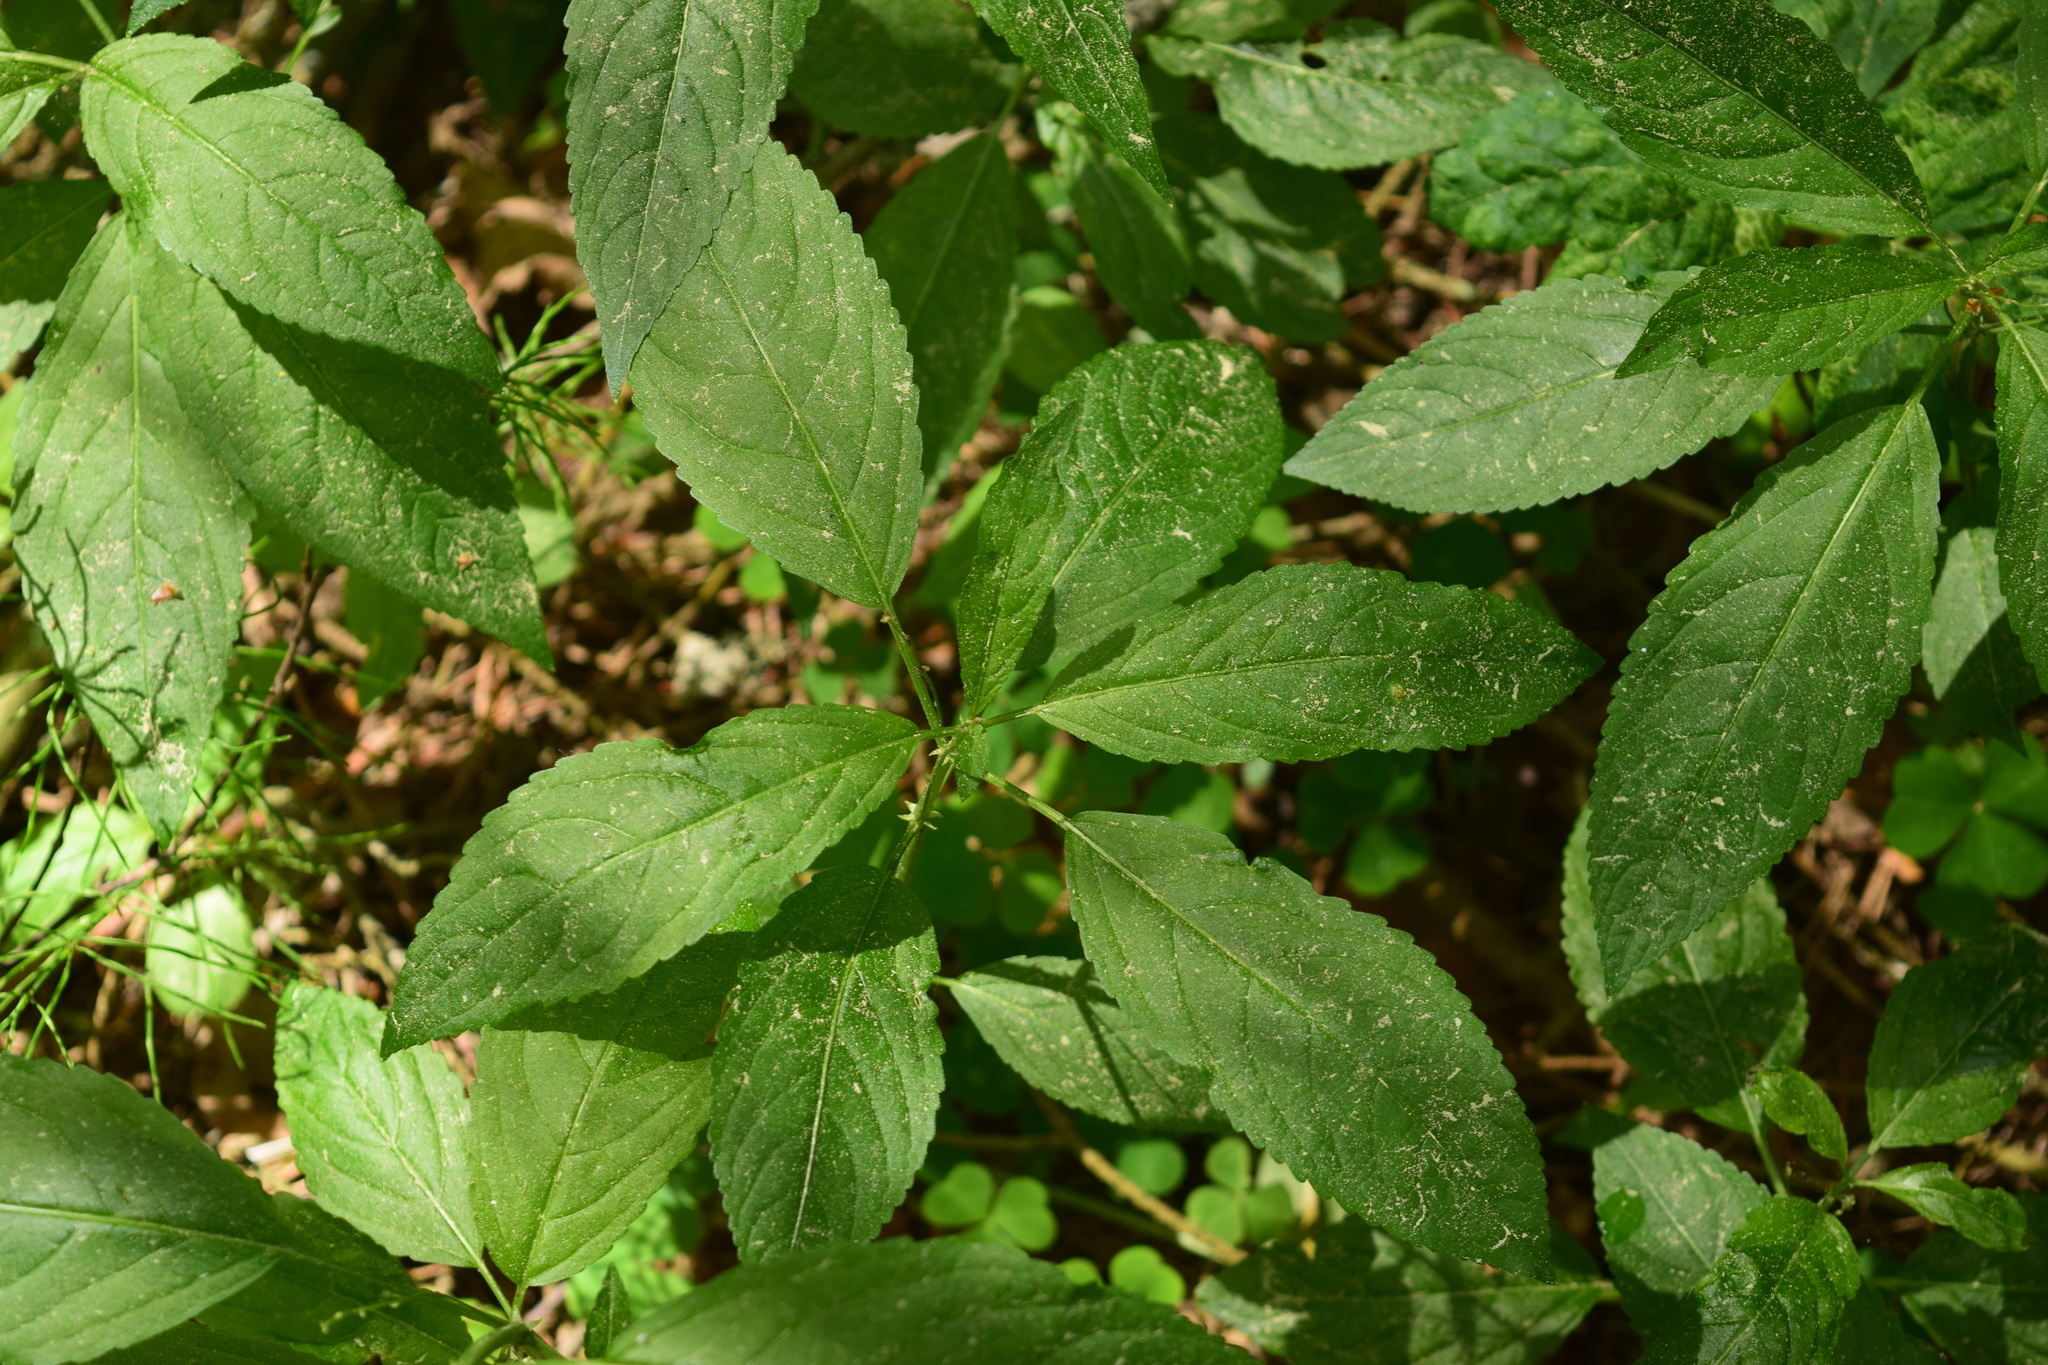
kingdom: Plantae
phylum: Tracheophyta
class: Magnoliopsida
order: Malpighiales
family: Euphorbiaceae
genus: Mercurialis
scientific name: Mercurialis perennis
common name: Dog mercury
